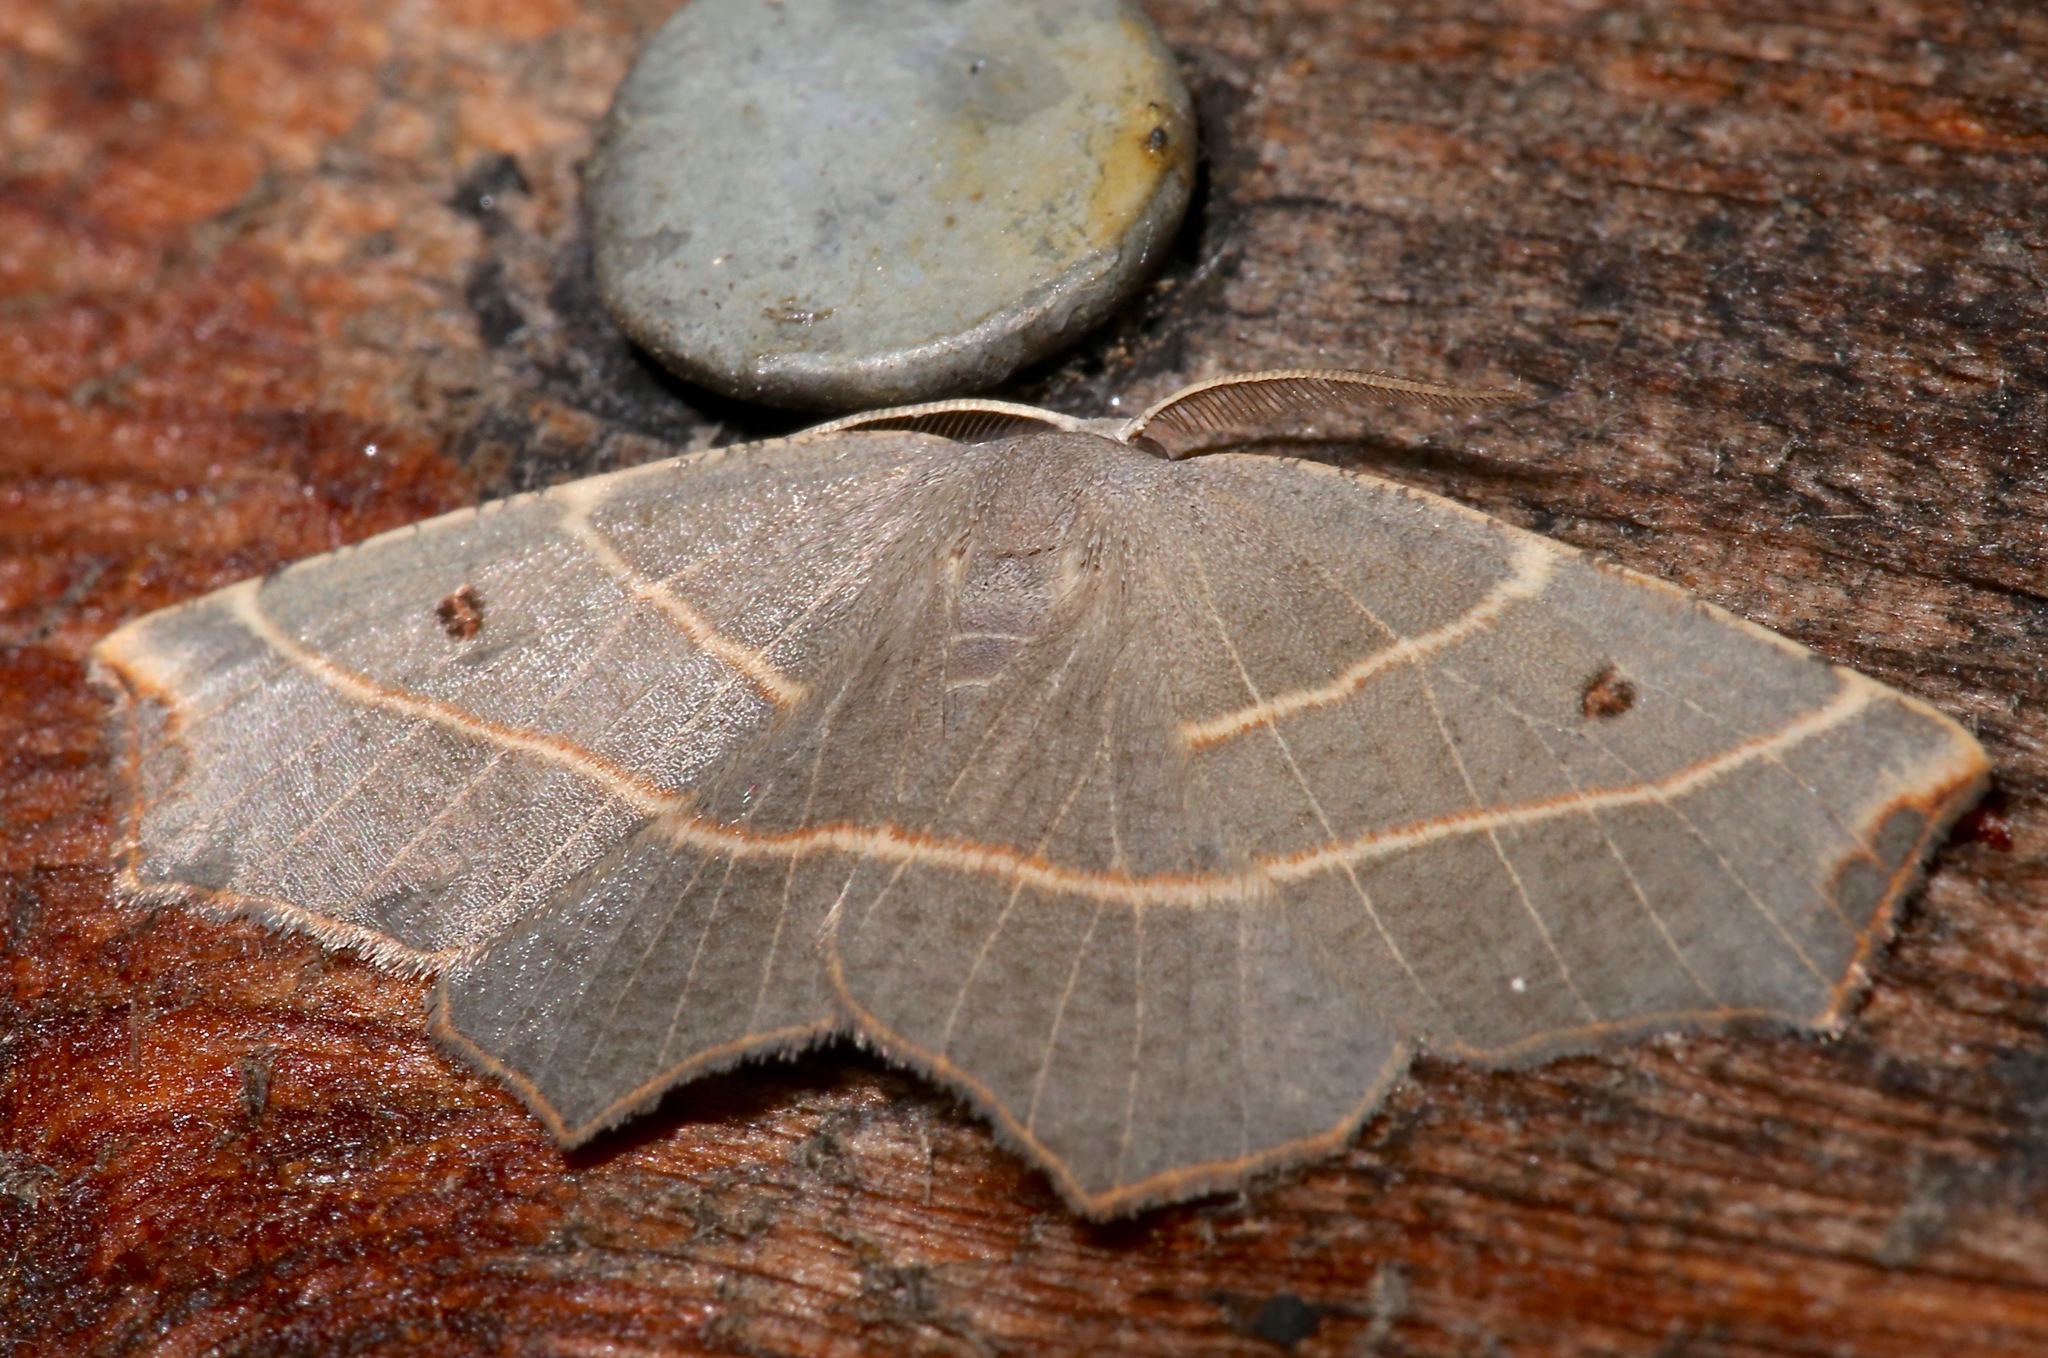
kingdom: Animalia
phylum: Arthropoda
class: Insecta
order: Lepidoptera
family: Geometridae
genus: Metanema
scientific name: Metanema inatomaria
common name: Pale metanema
